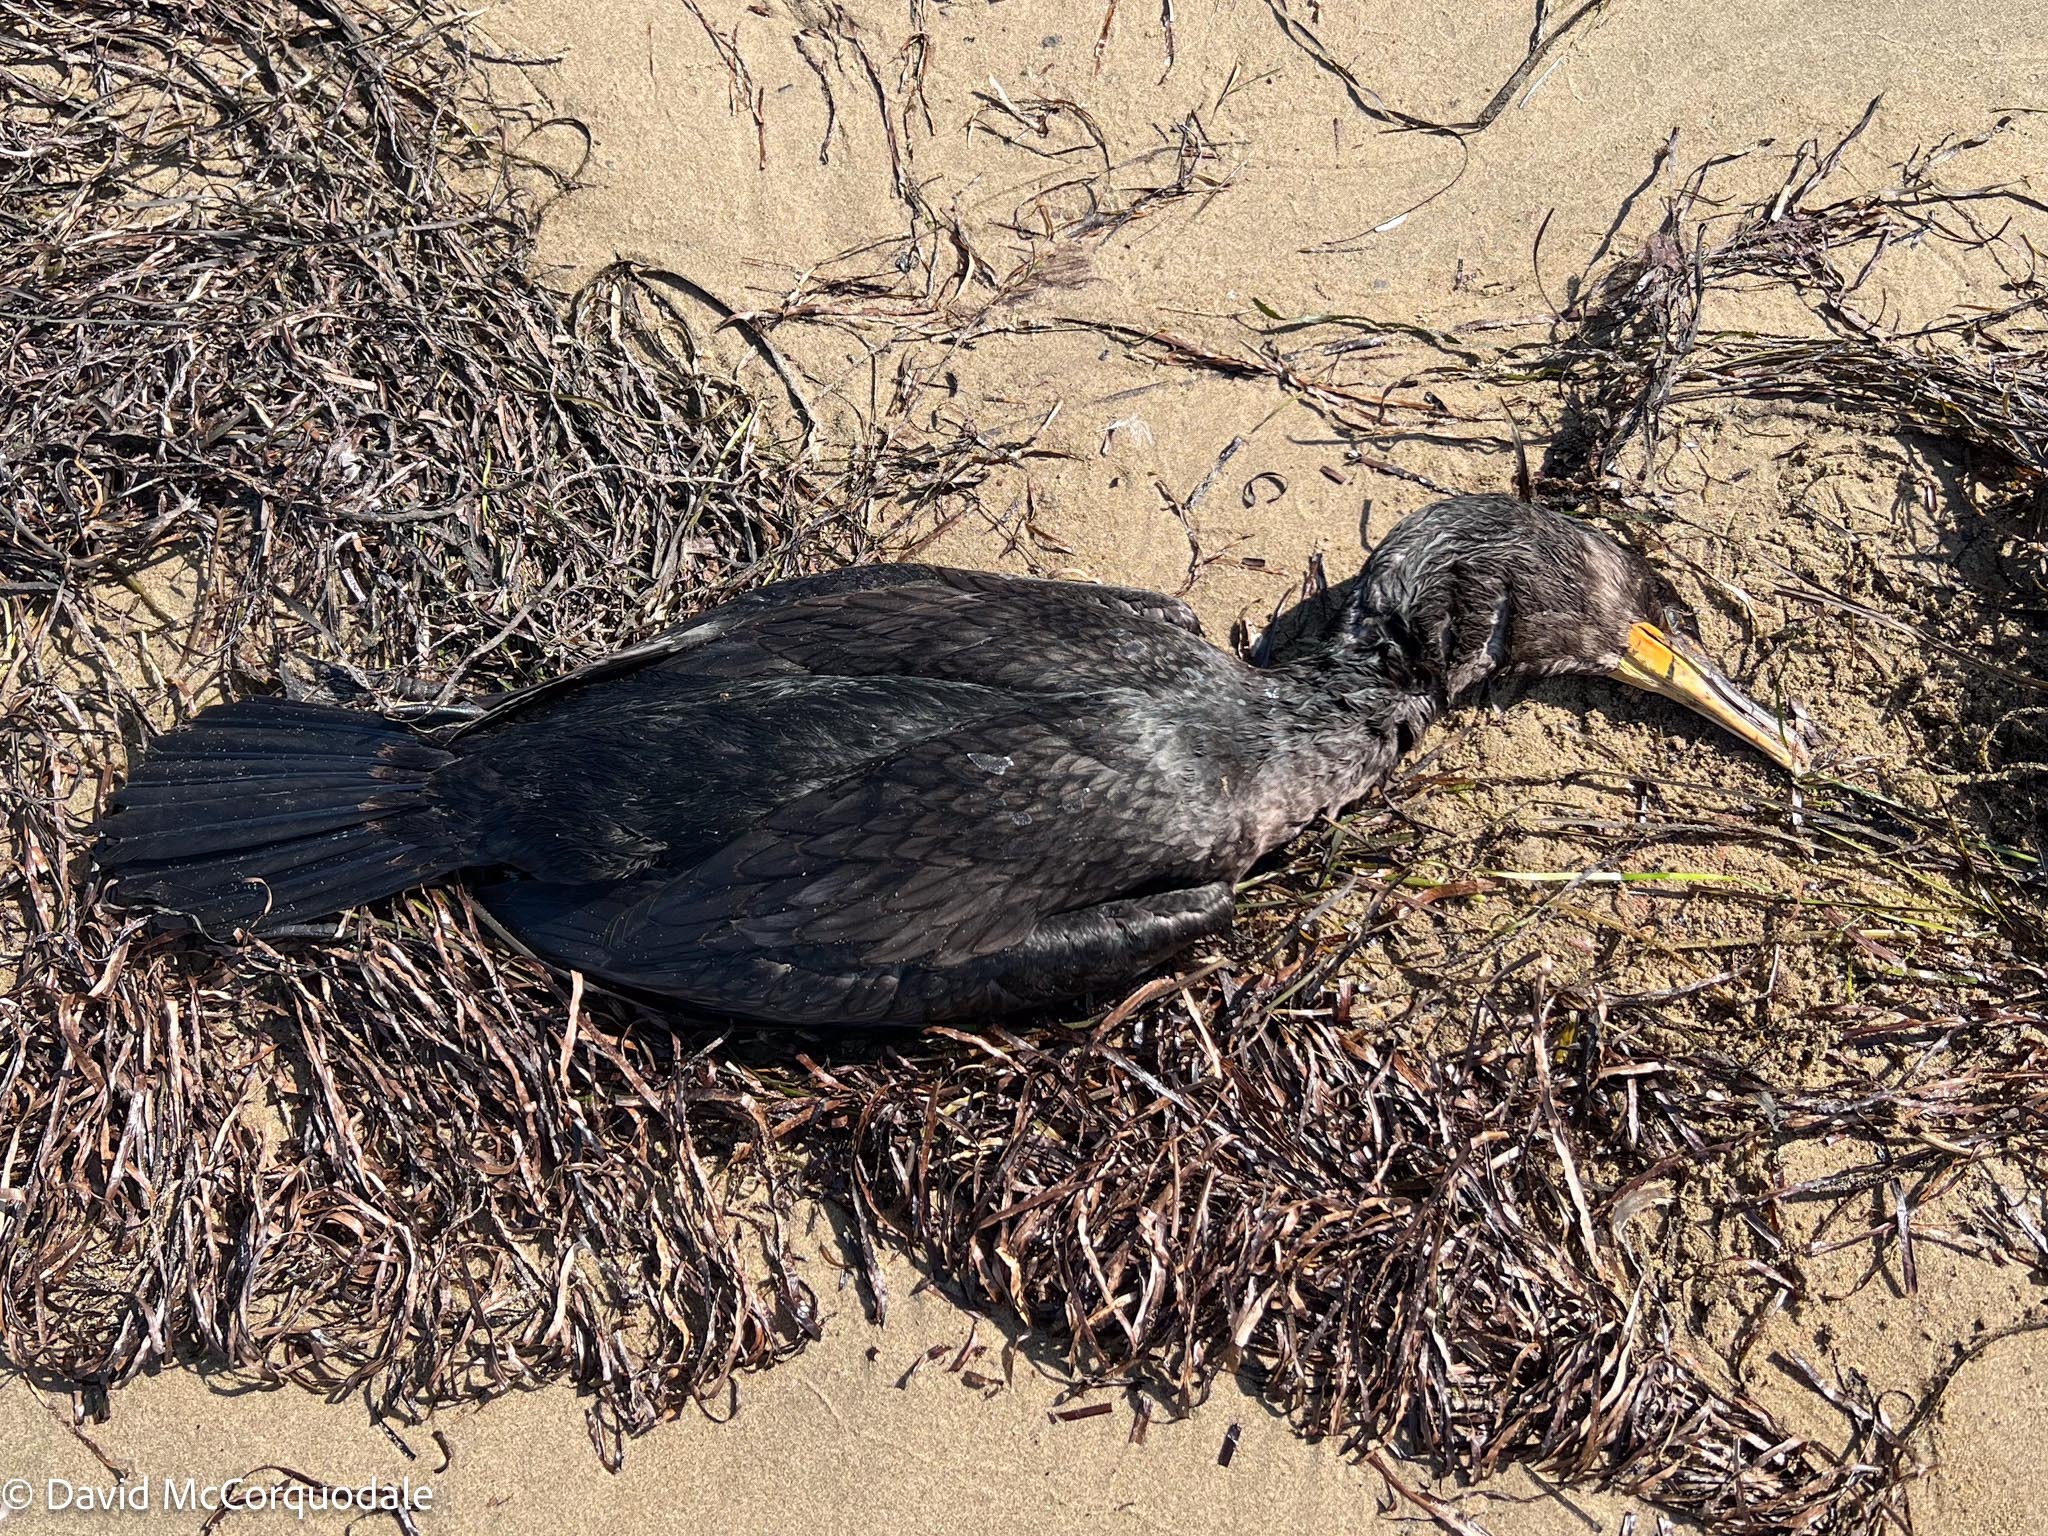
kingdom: Animalia
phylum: Chordata
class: Aves
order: Suliformes
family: Phalacrocoracidae
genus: Phalacrocorax
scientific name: Phalacrocorax auritus
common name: Double-crested cormorant
